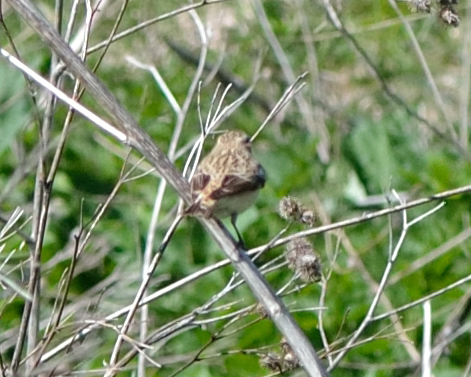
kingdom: Animalia
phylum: Chordata
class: Aves
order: Passeriformes
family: Muscicapidae
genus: Saxicola
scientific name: Saxicola rubetra
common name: Whinchat
